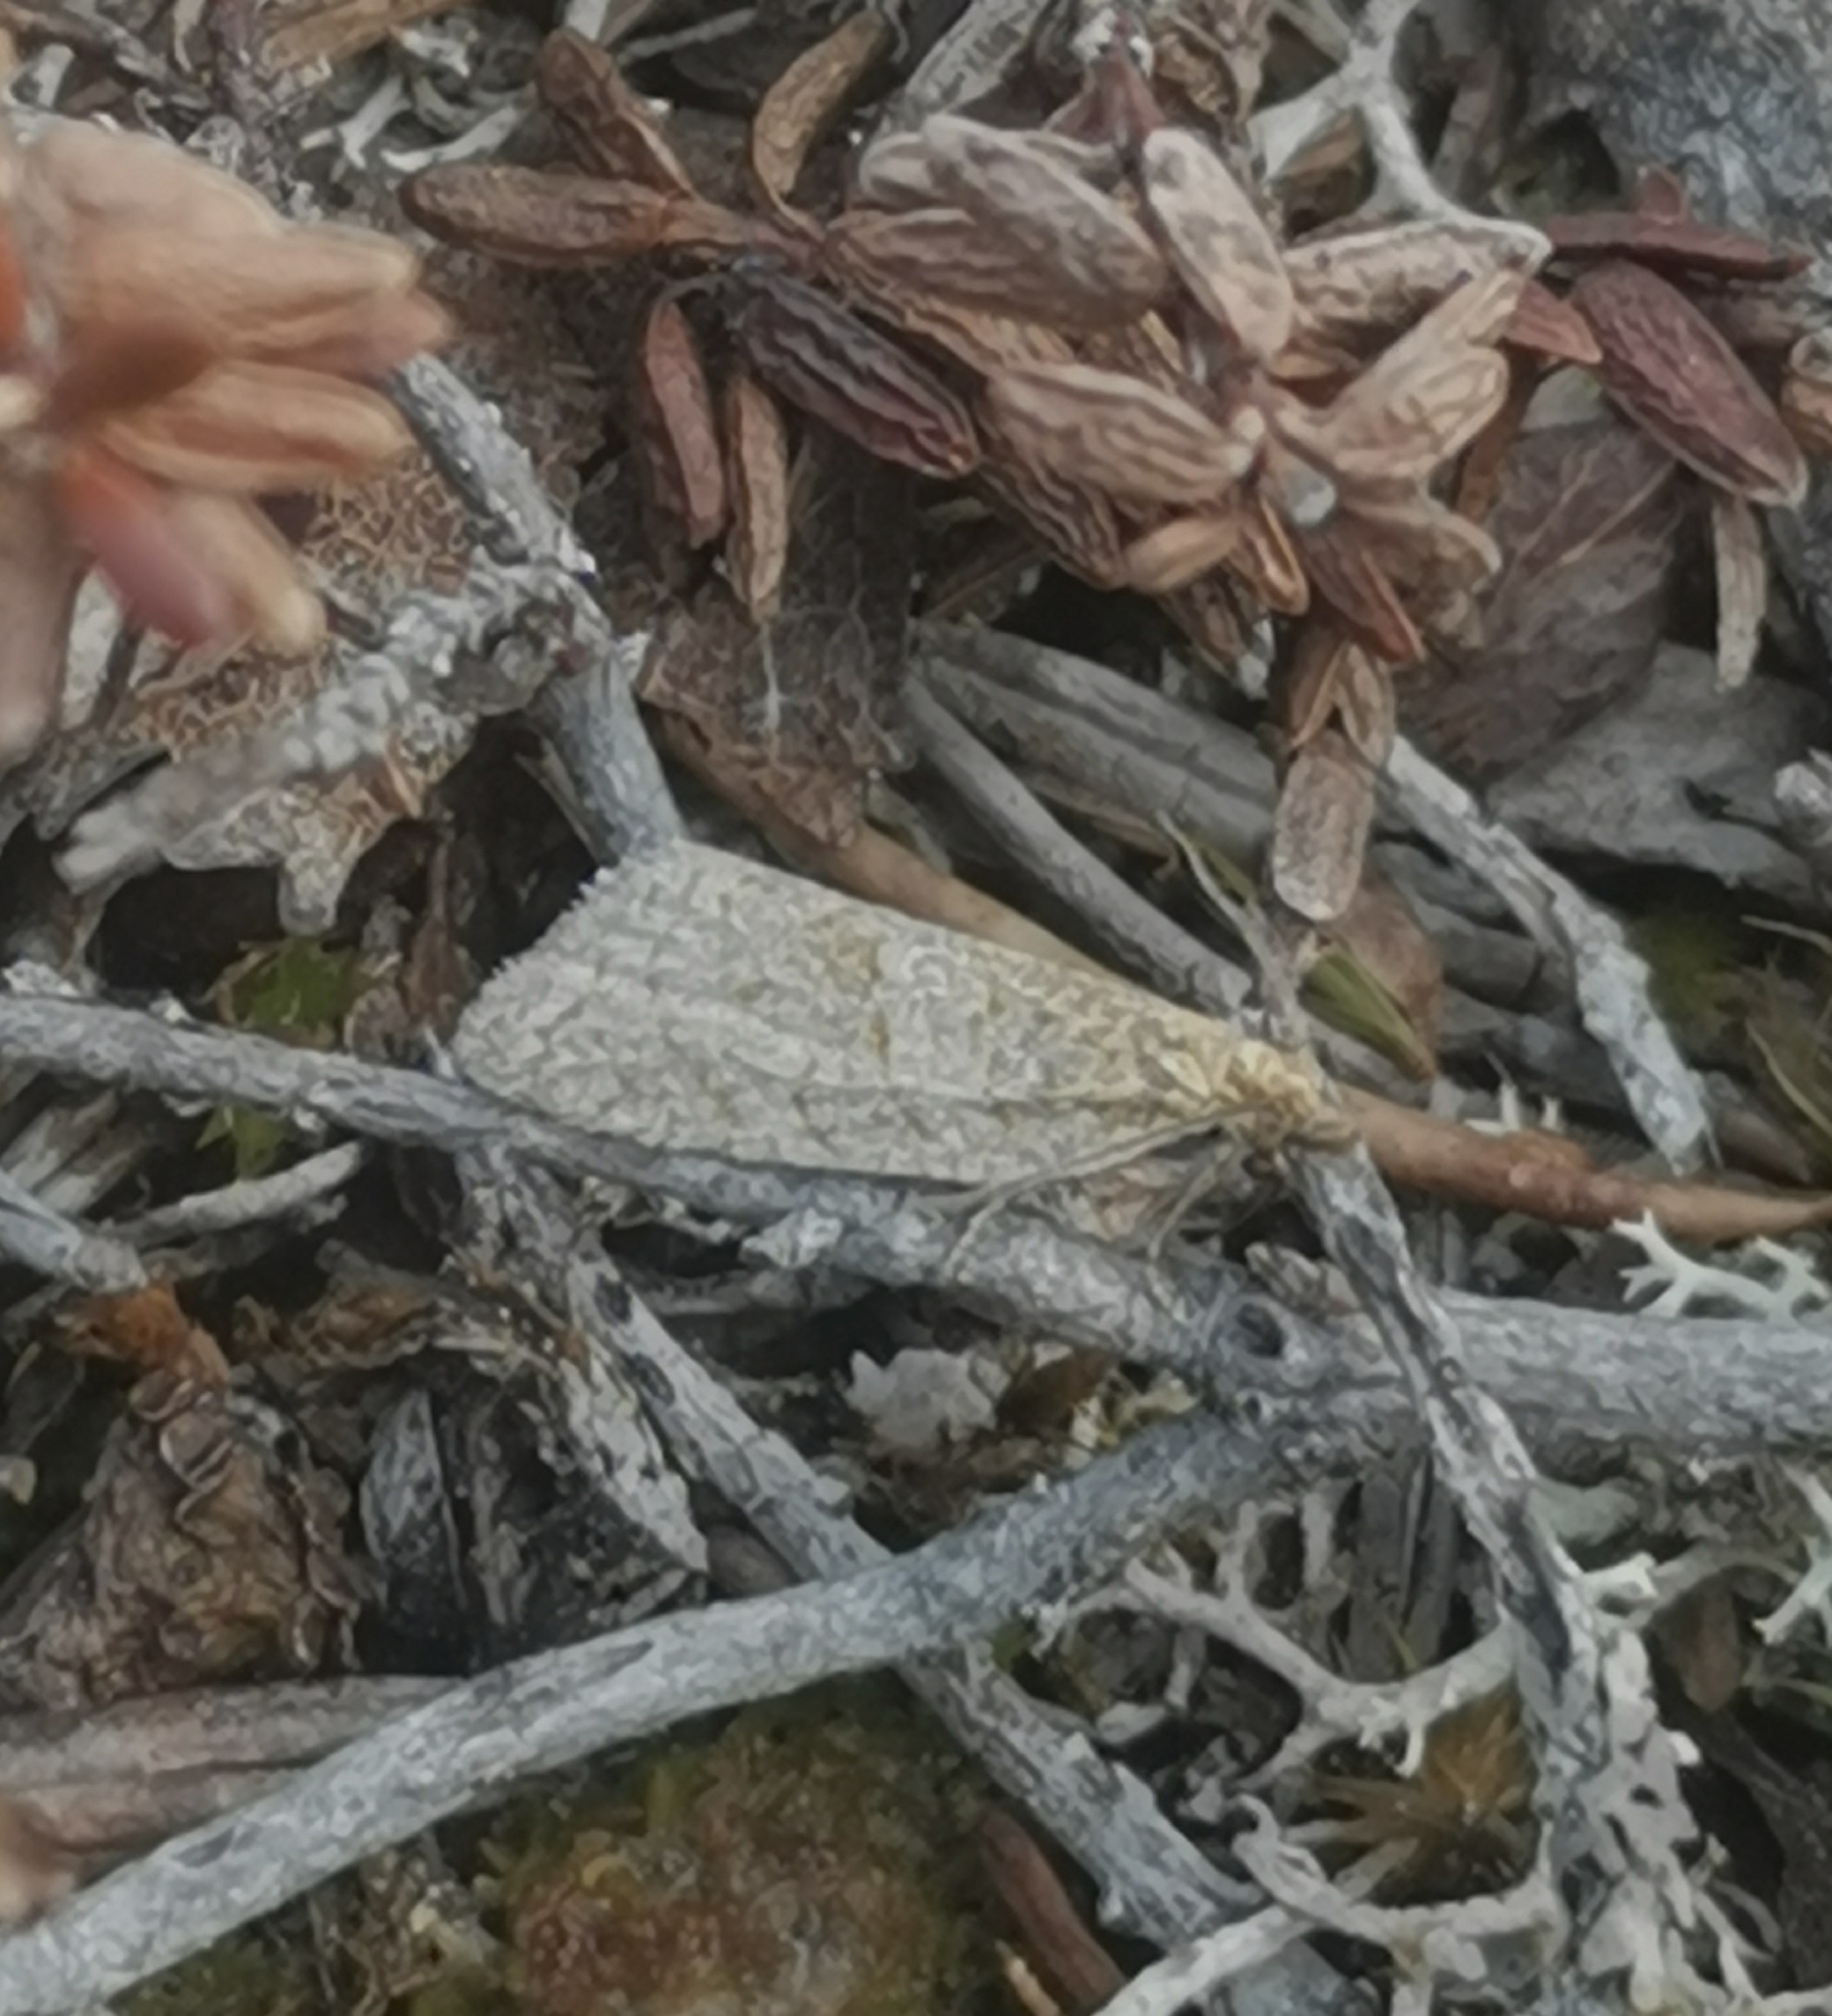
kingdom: Animalia
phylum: Arthropoda
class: Insecta
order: Lepidoptera
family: Tortricidae
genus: Clepsis
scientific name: Clepsis senecionana
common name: Obscure tortrix
